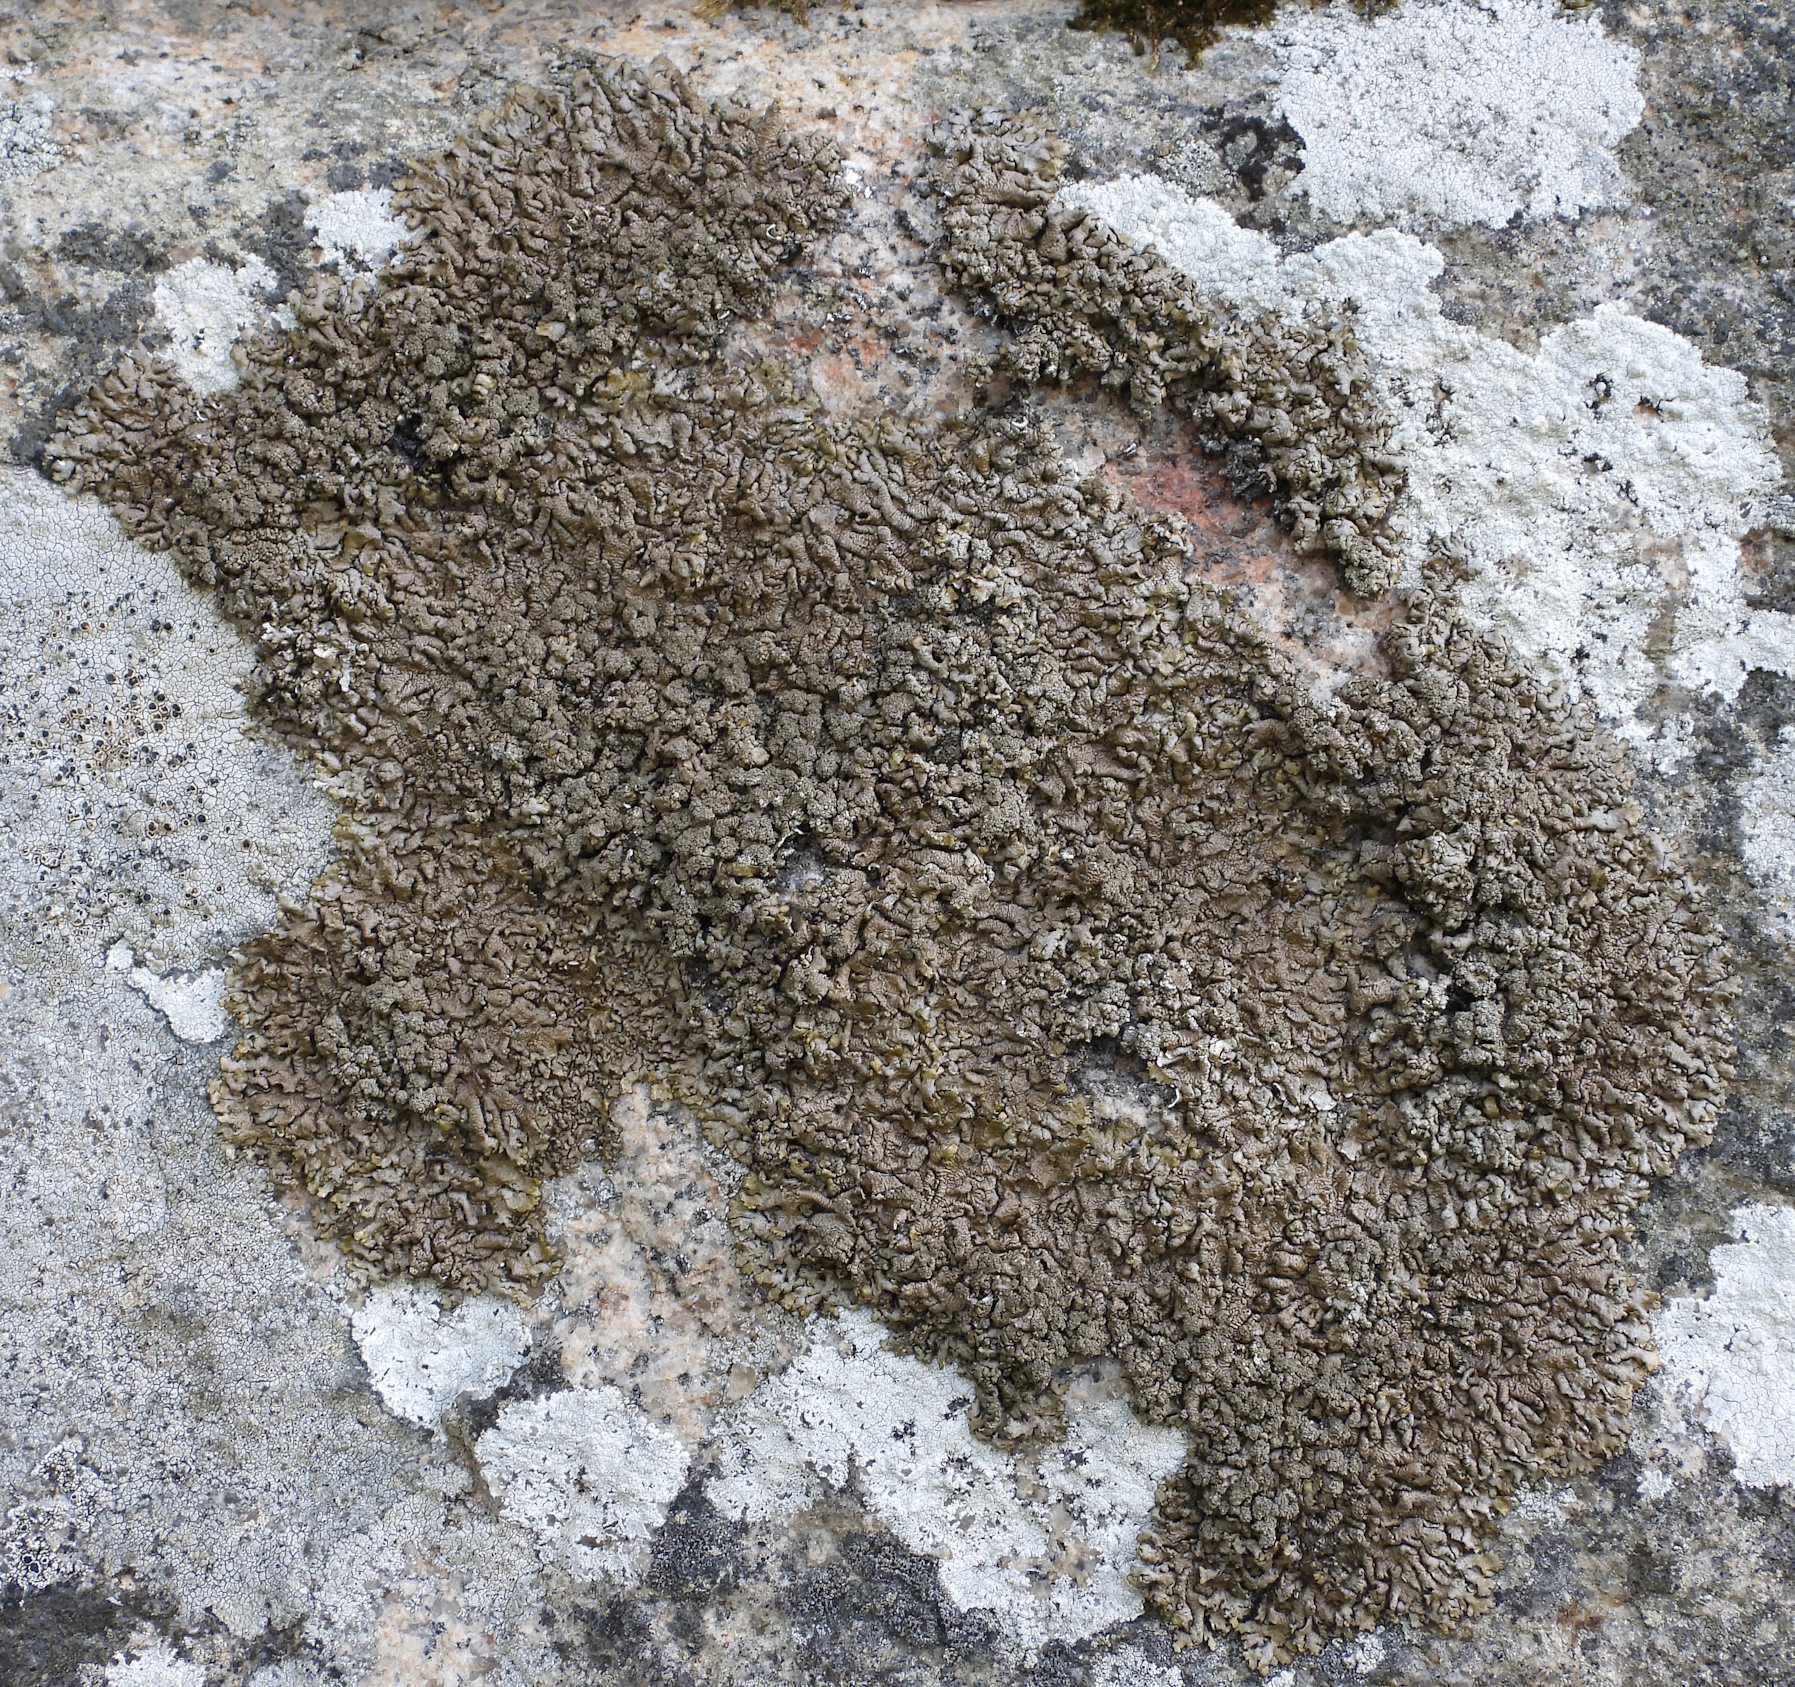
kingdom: Fungi
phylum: Ascomycota
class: Lecanoromycetes
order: Lecanorales
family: Parmeliaceae
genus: Xanthoparmelia
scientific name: Xanthoparmelia loxodes
